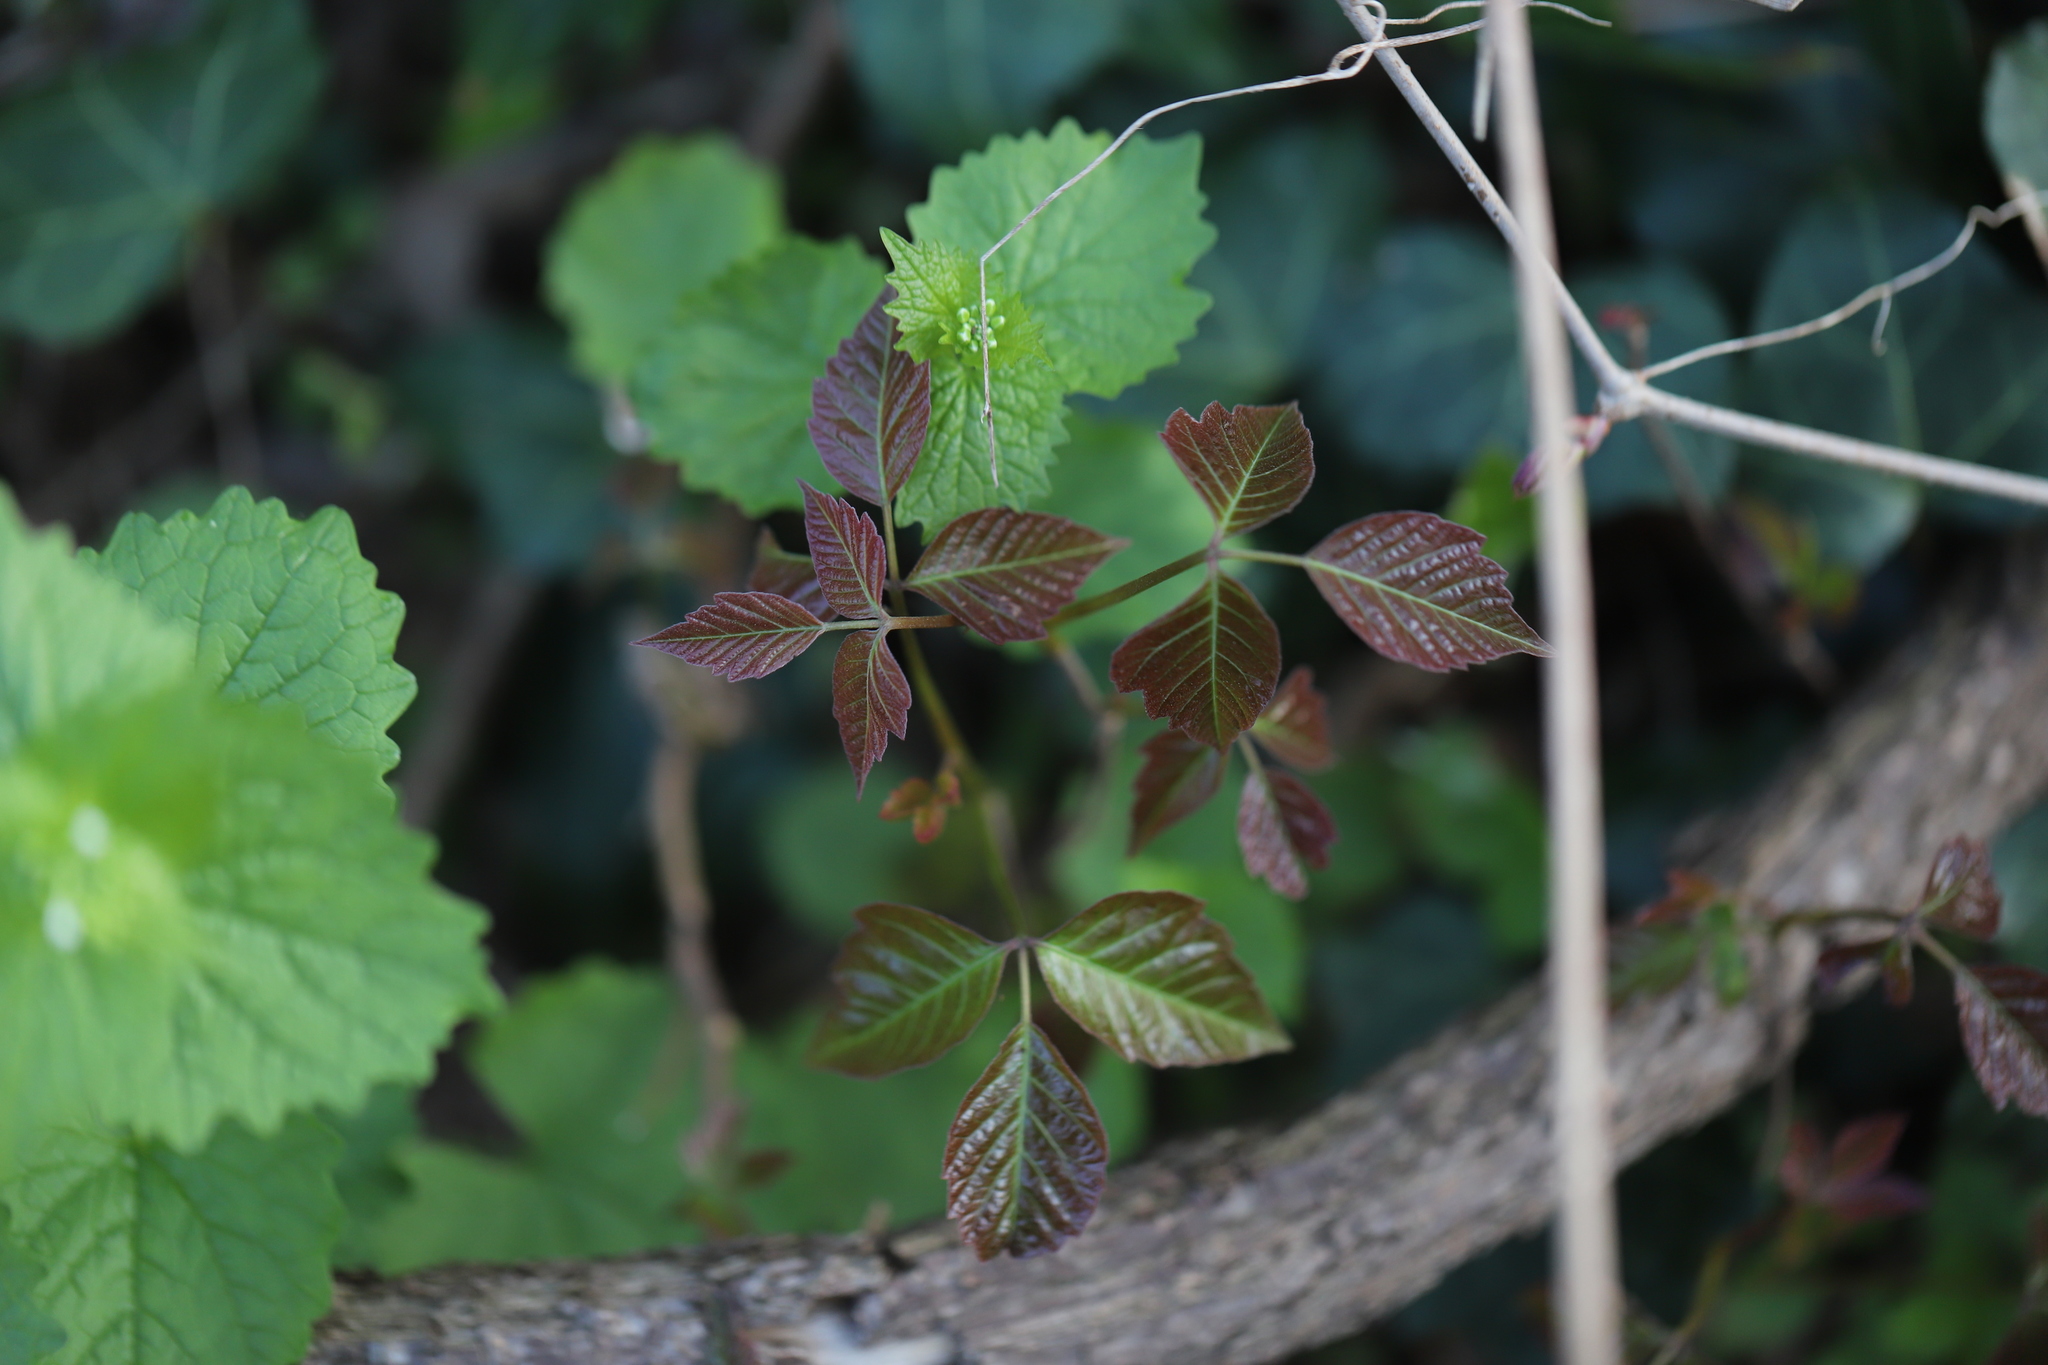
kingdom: Plantae
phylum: Tracheophyta
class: Magnoliopsida
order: Sapindales
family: Anacardiaceae
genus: Toxicodendron
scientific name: Toxicodendron radicans
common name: Poison ivy
